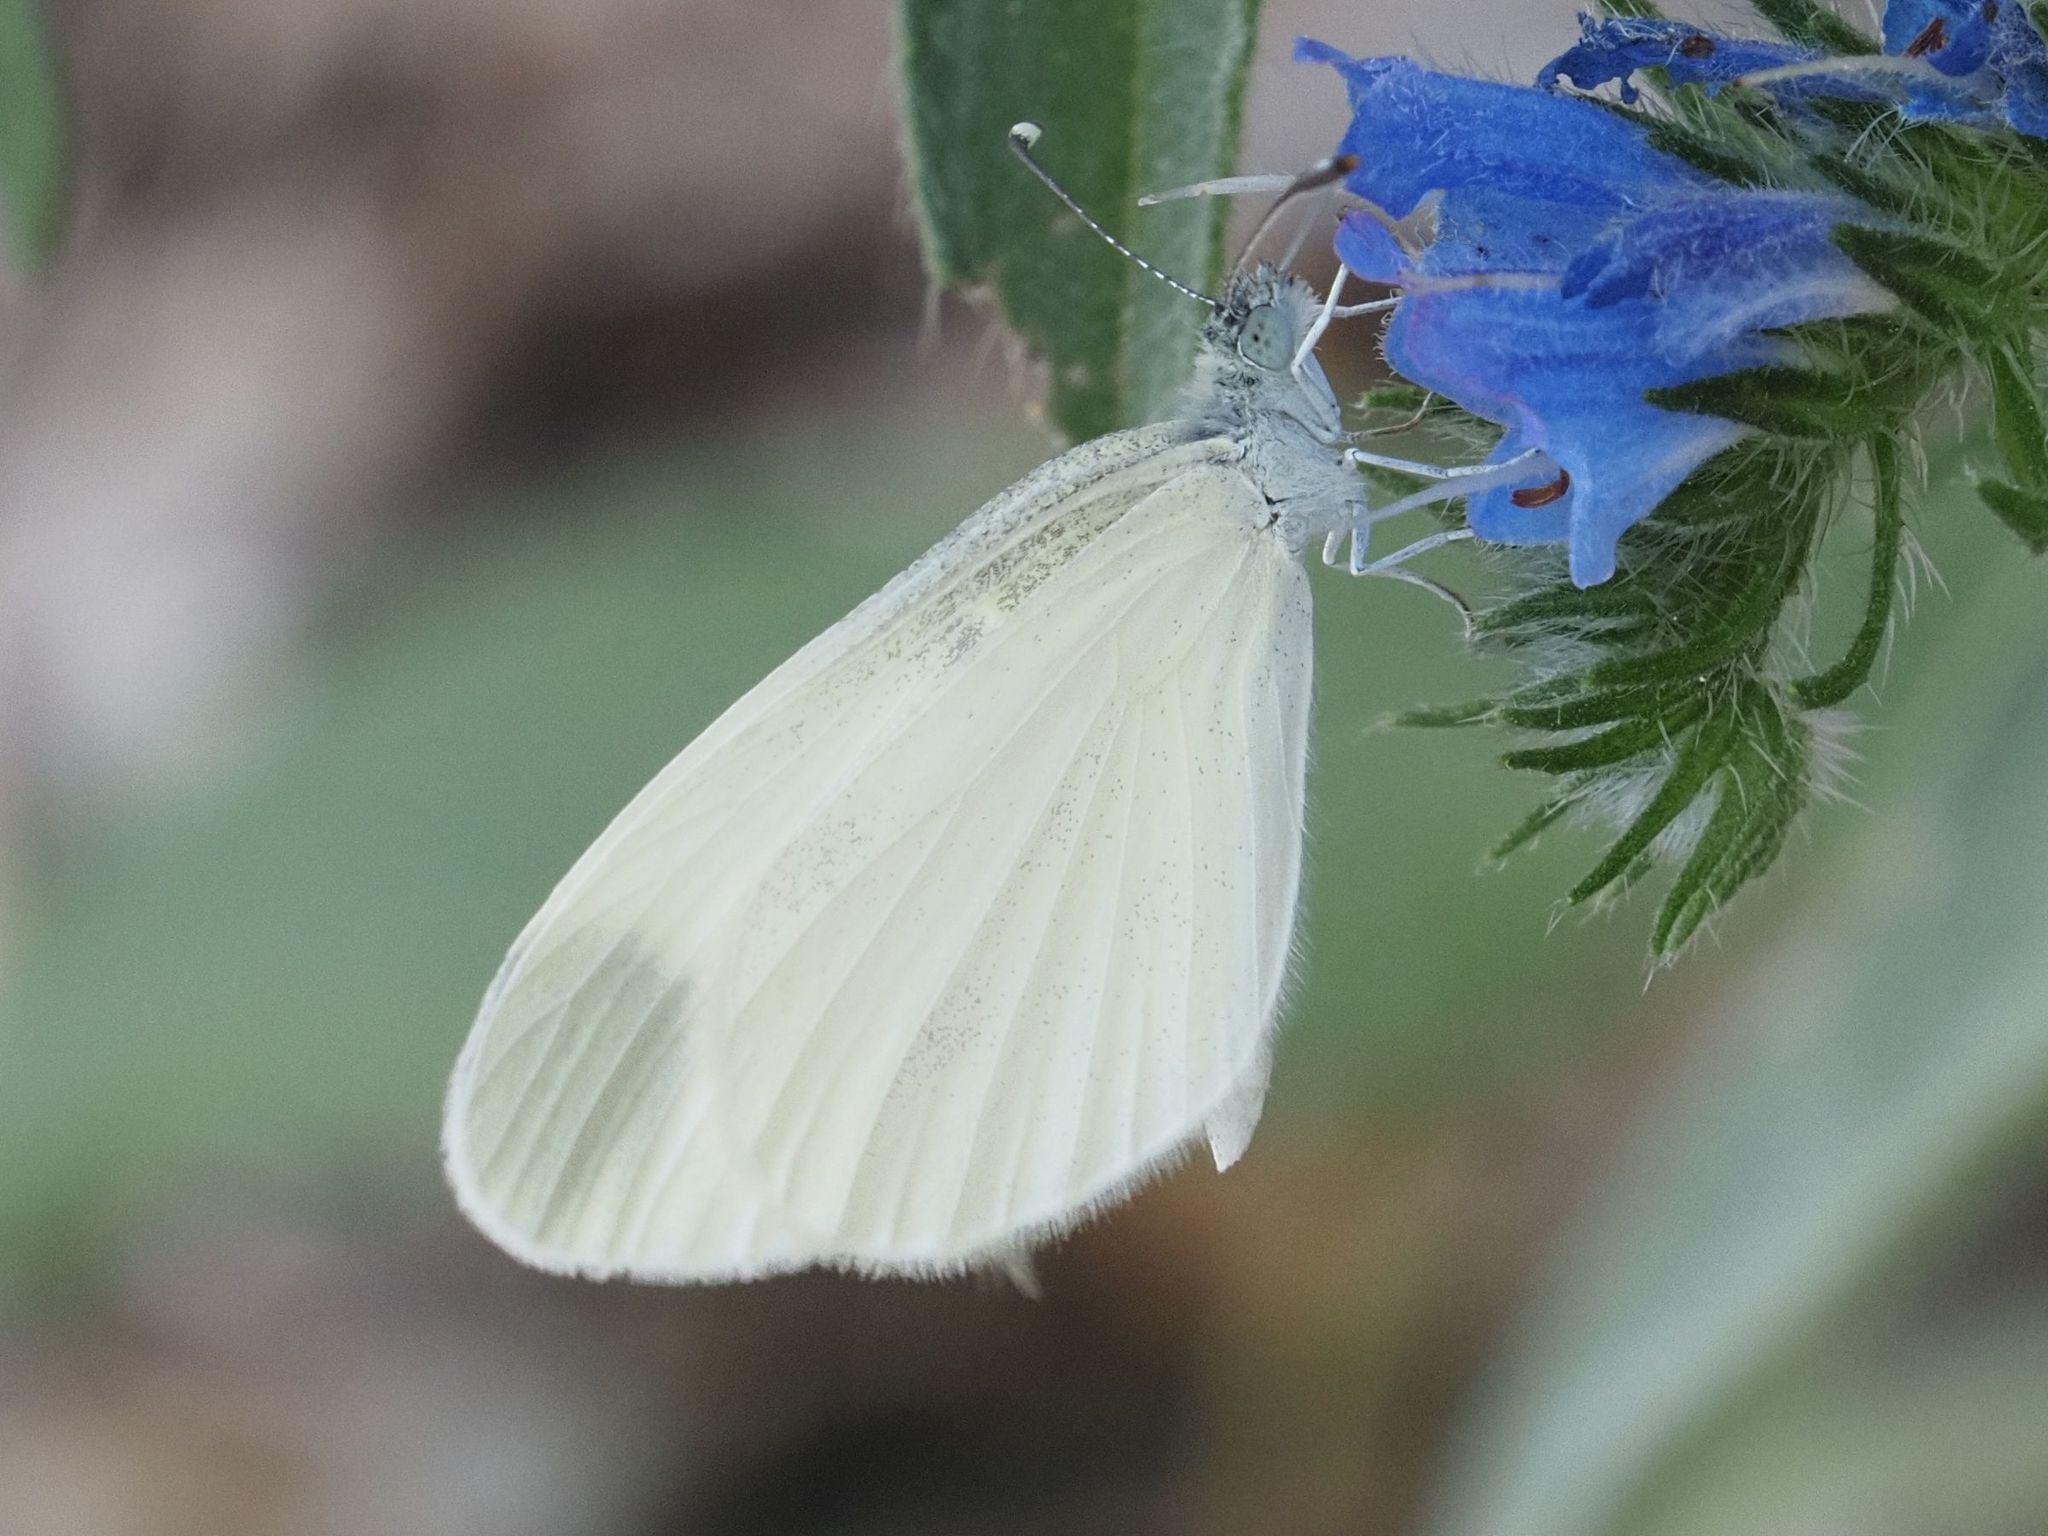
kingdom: Animalia
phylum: Arthropoda
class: Insecta
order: Lepidoptera
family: Pieridae
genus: Leptidea
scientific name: Leptidea
